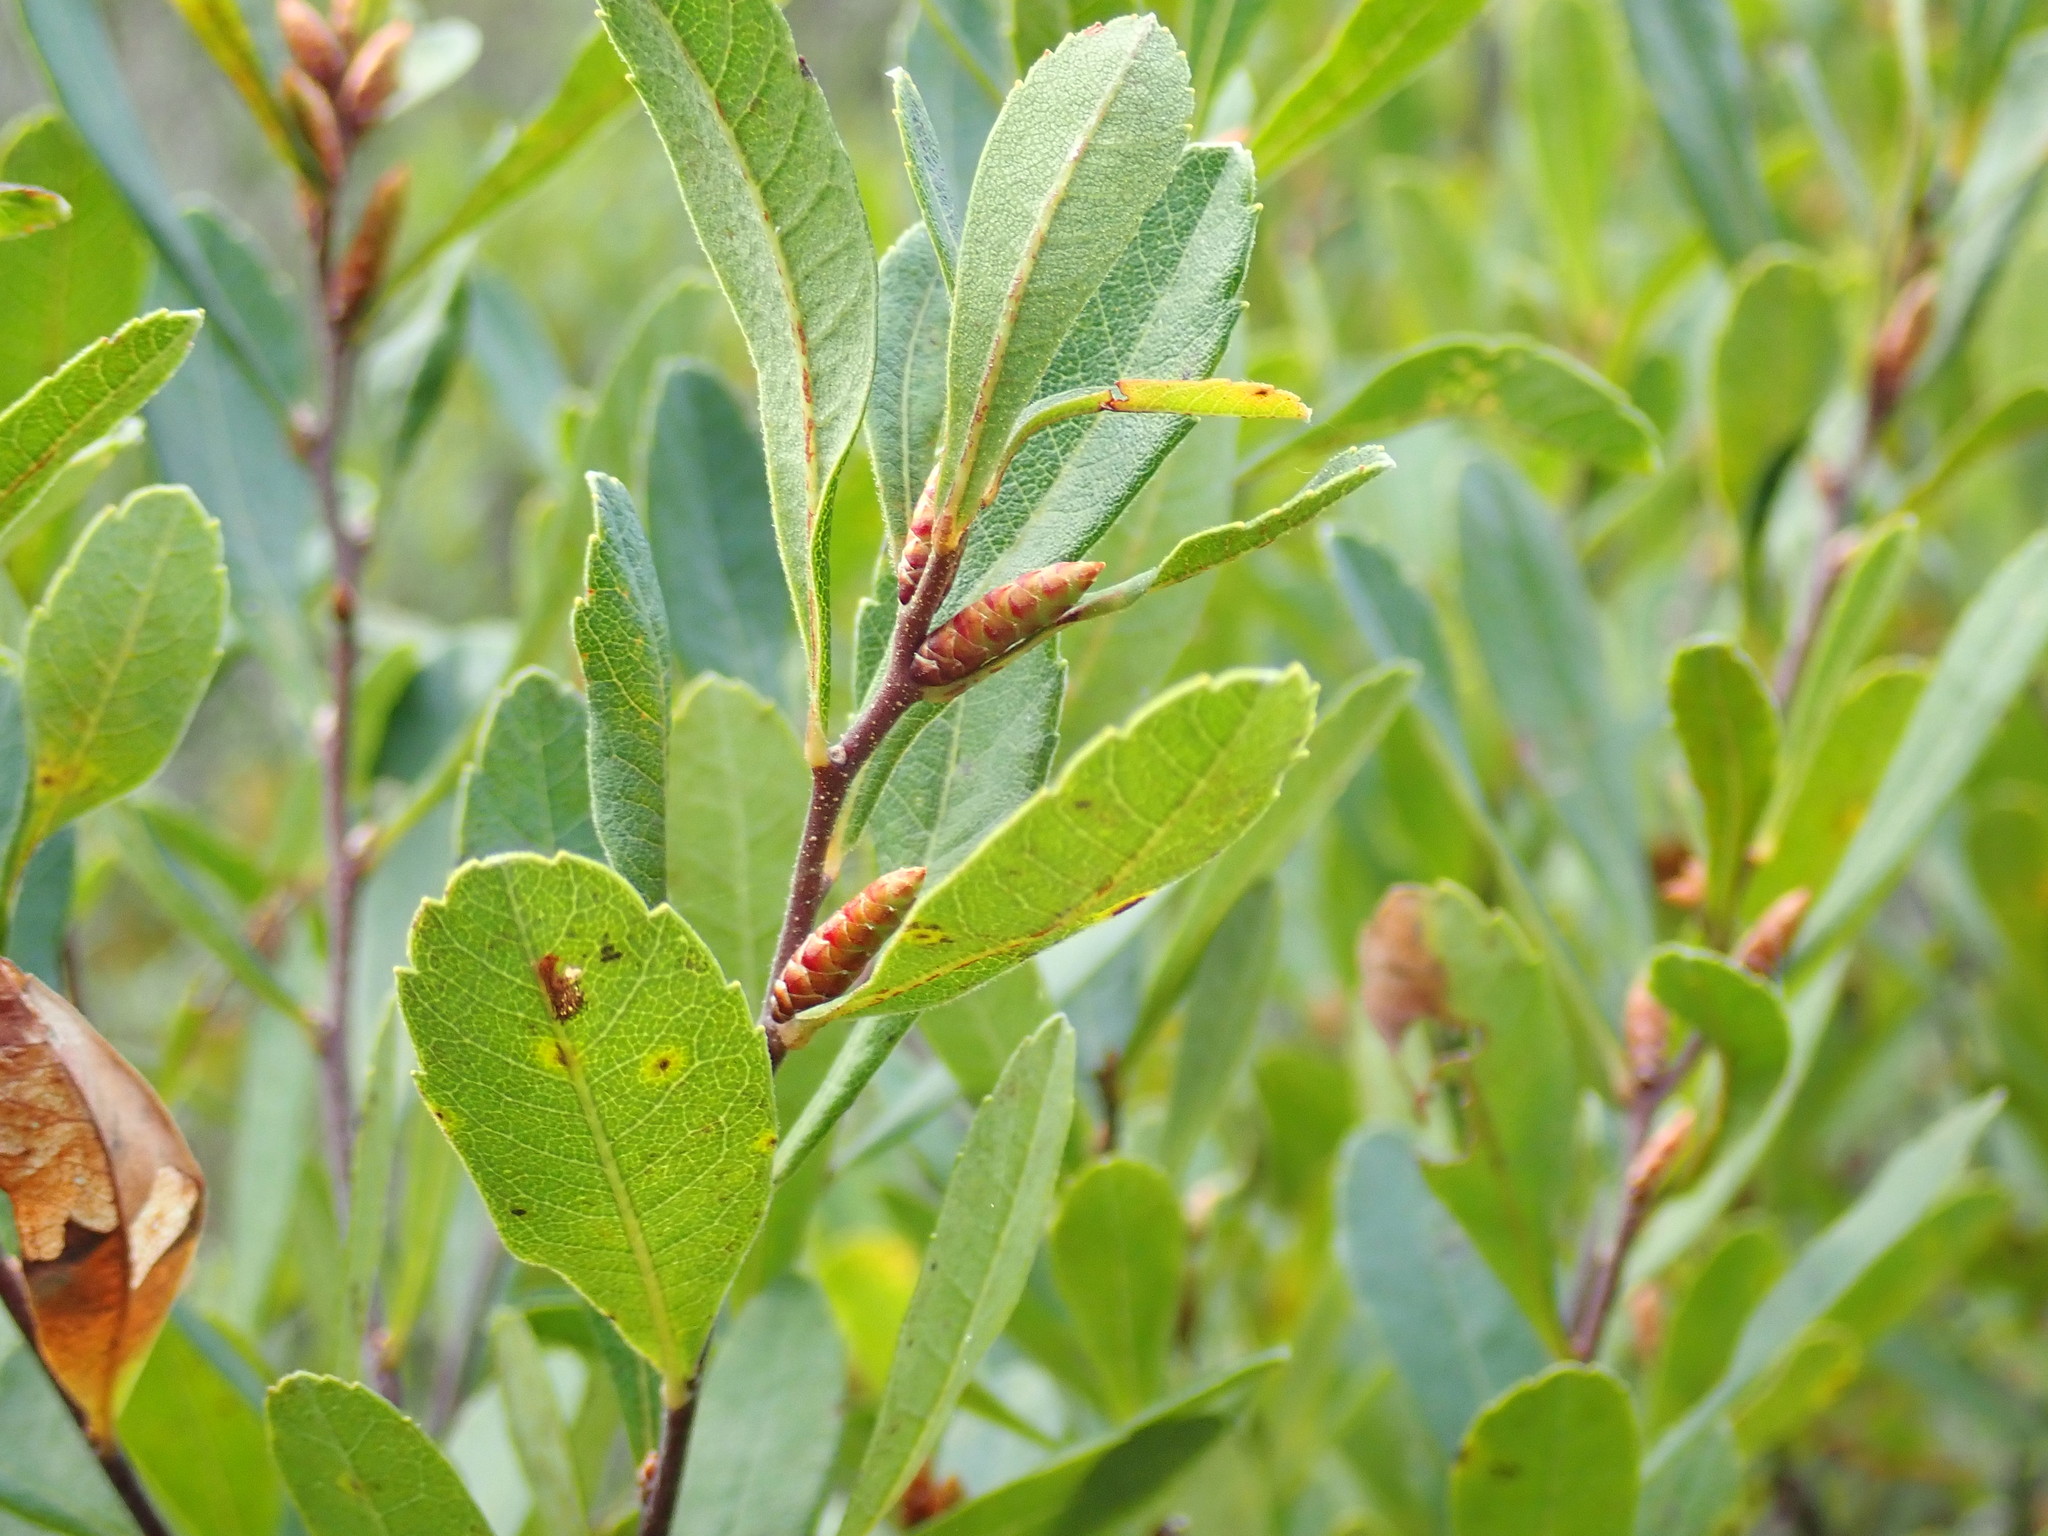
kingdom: Plantae
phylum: Tracheophyta
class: Magnoliopsida
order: Fagales
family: Myricaceae
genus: Myrica
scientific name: Myrica gale
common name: Sweet gale
